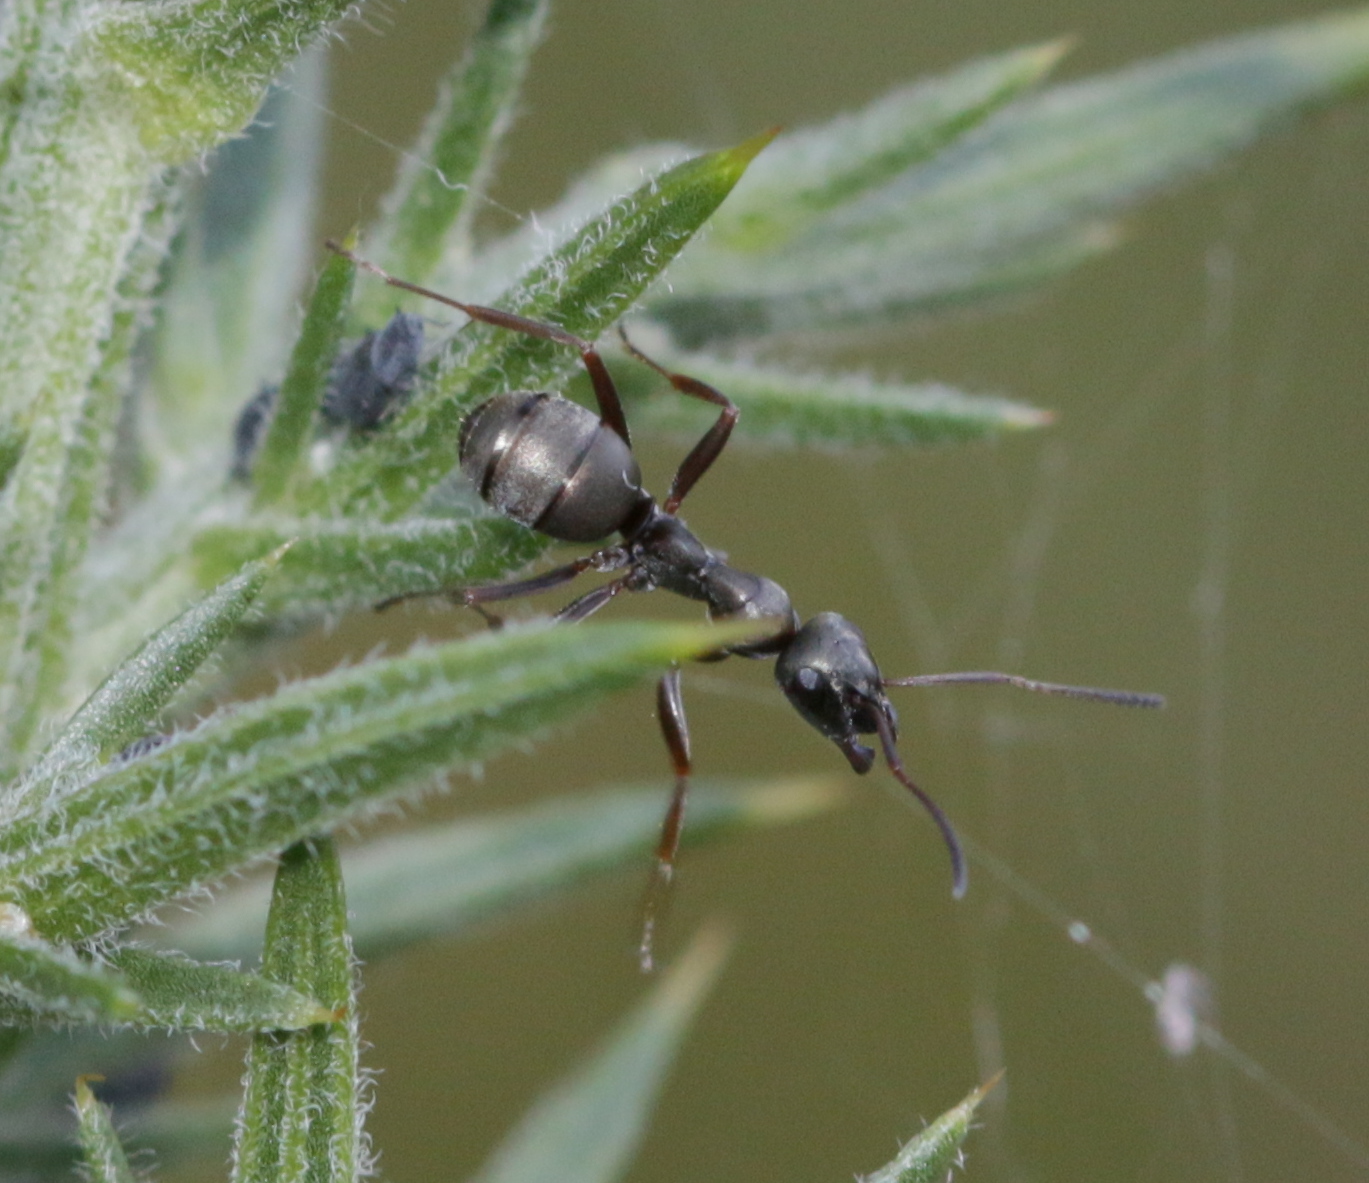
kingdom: Animalia
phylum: Arthropoda
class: Insecta
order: Hymenoptera
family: Formicidae
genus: Formica
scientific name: Formica fusca
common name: Silky ant
